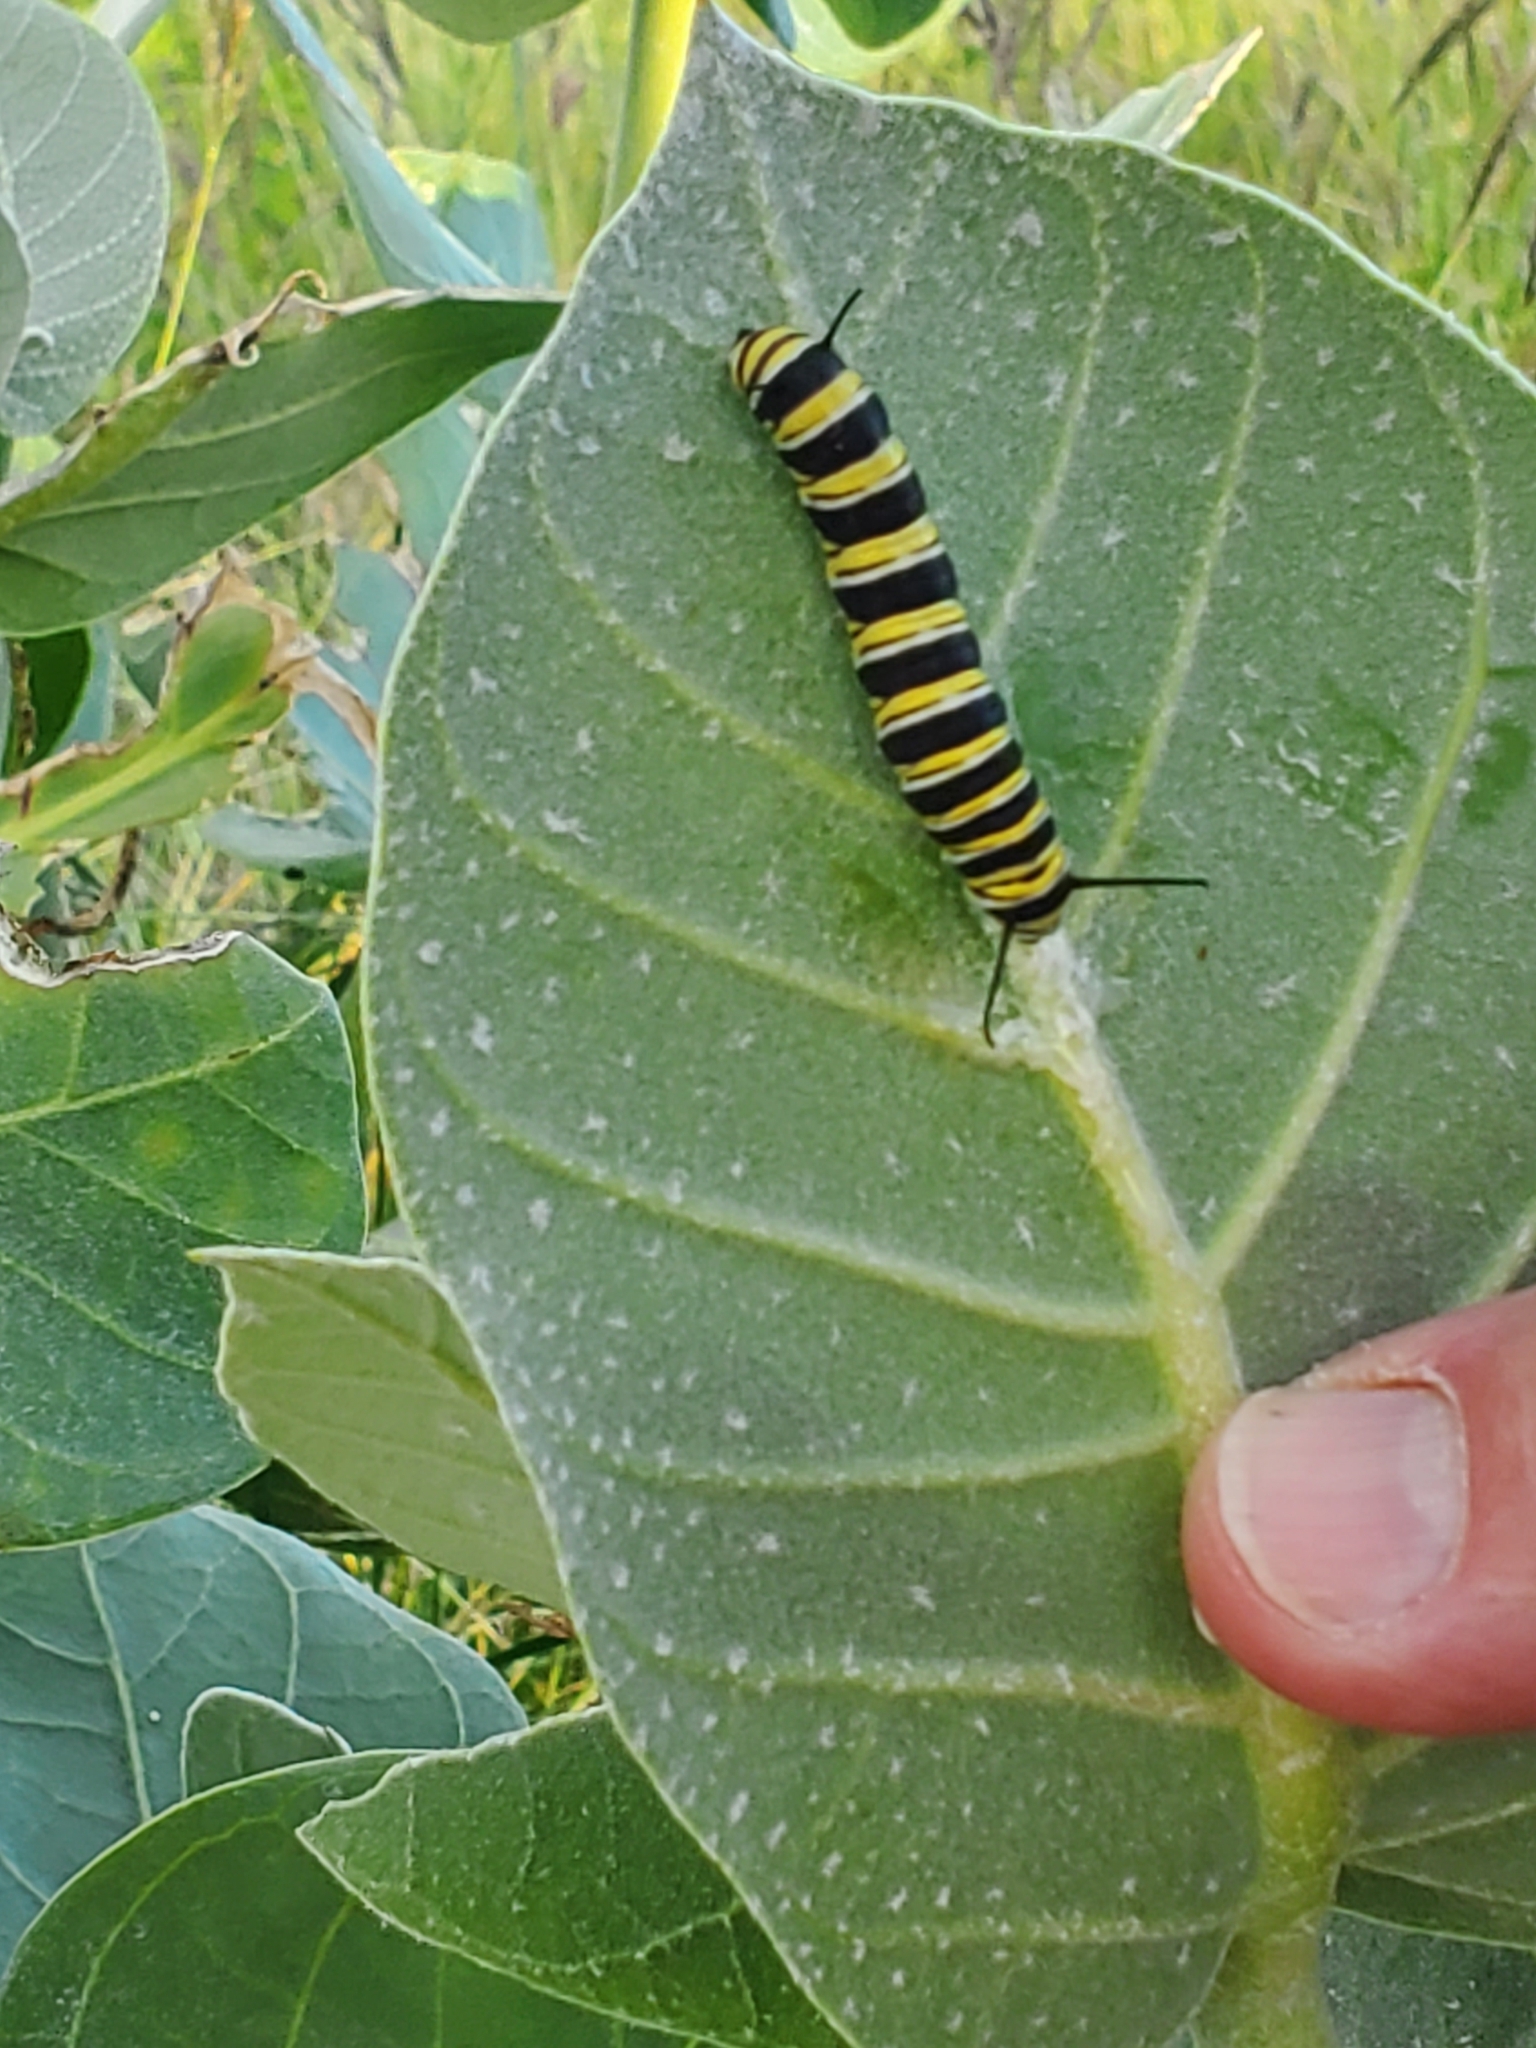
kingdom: Animalia
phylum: Arthropoda
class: Insecta
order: Lepidoptera
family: Nymphalidae
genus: Danaus
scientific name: Danaus plexippus
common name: Monarch
